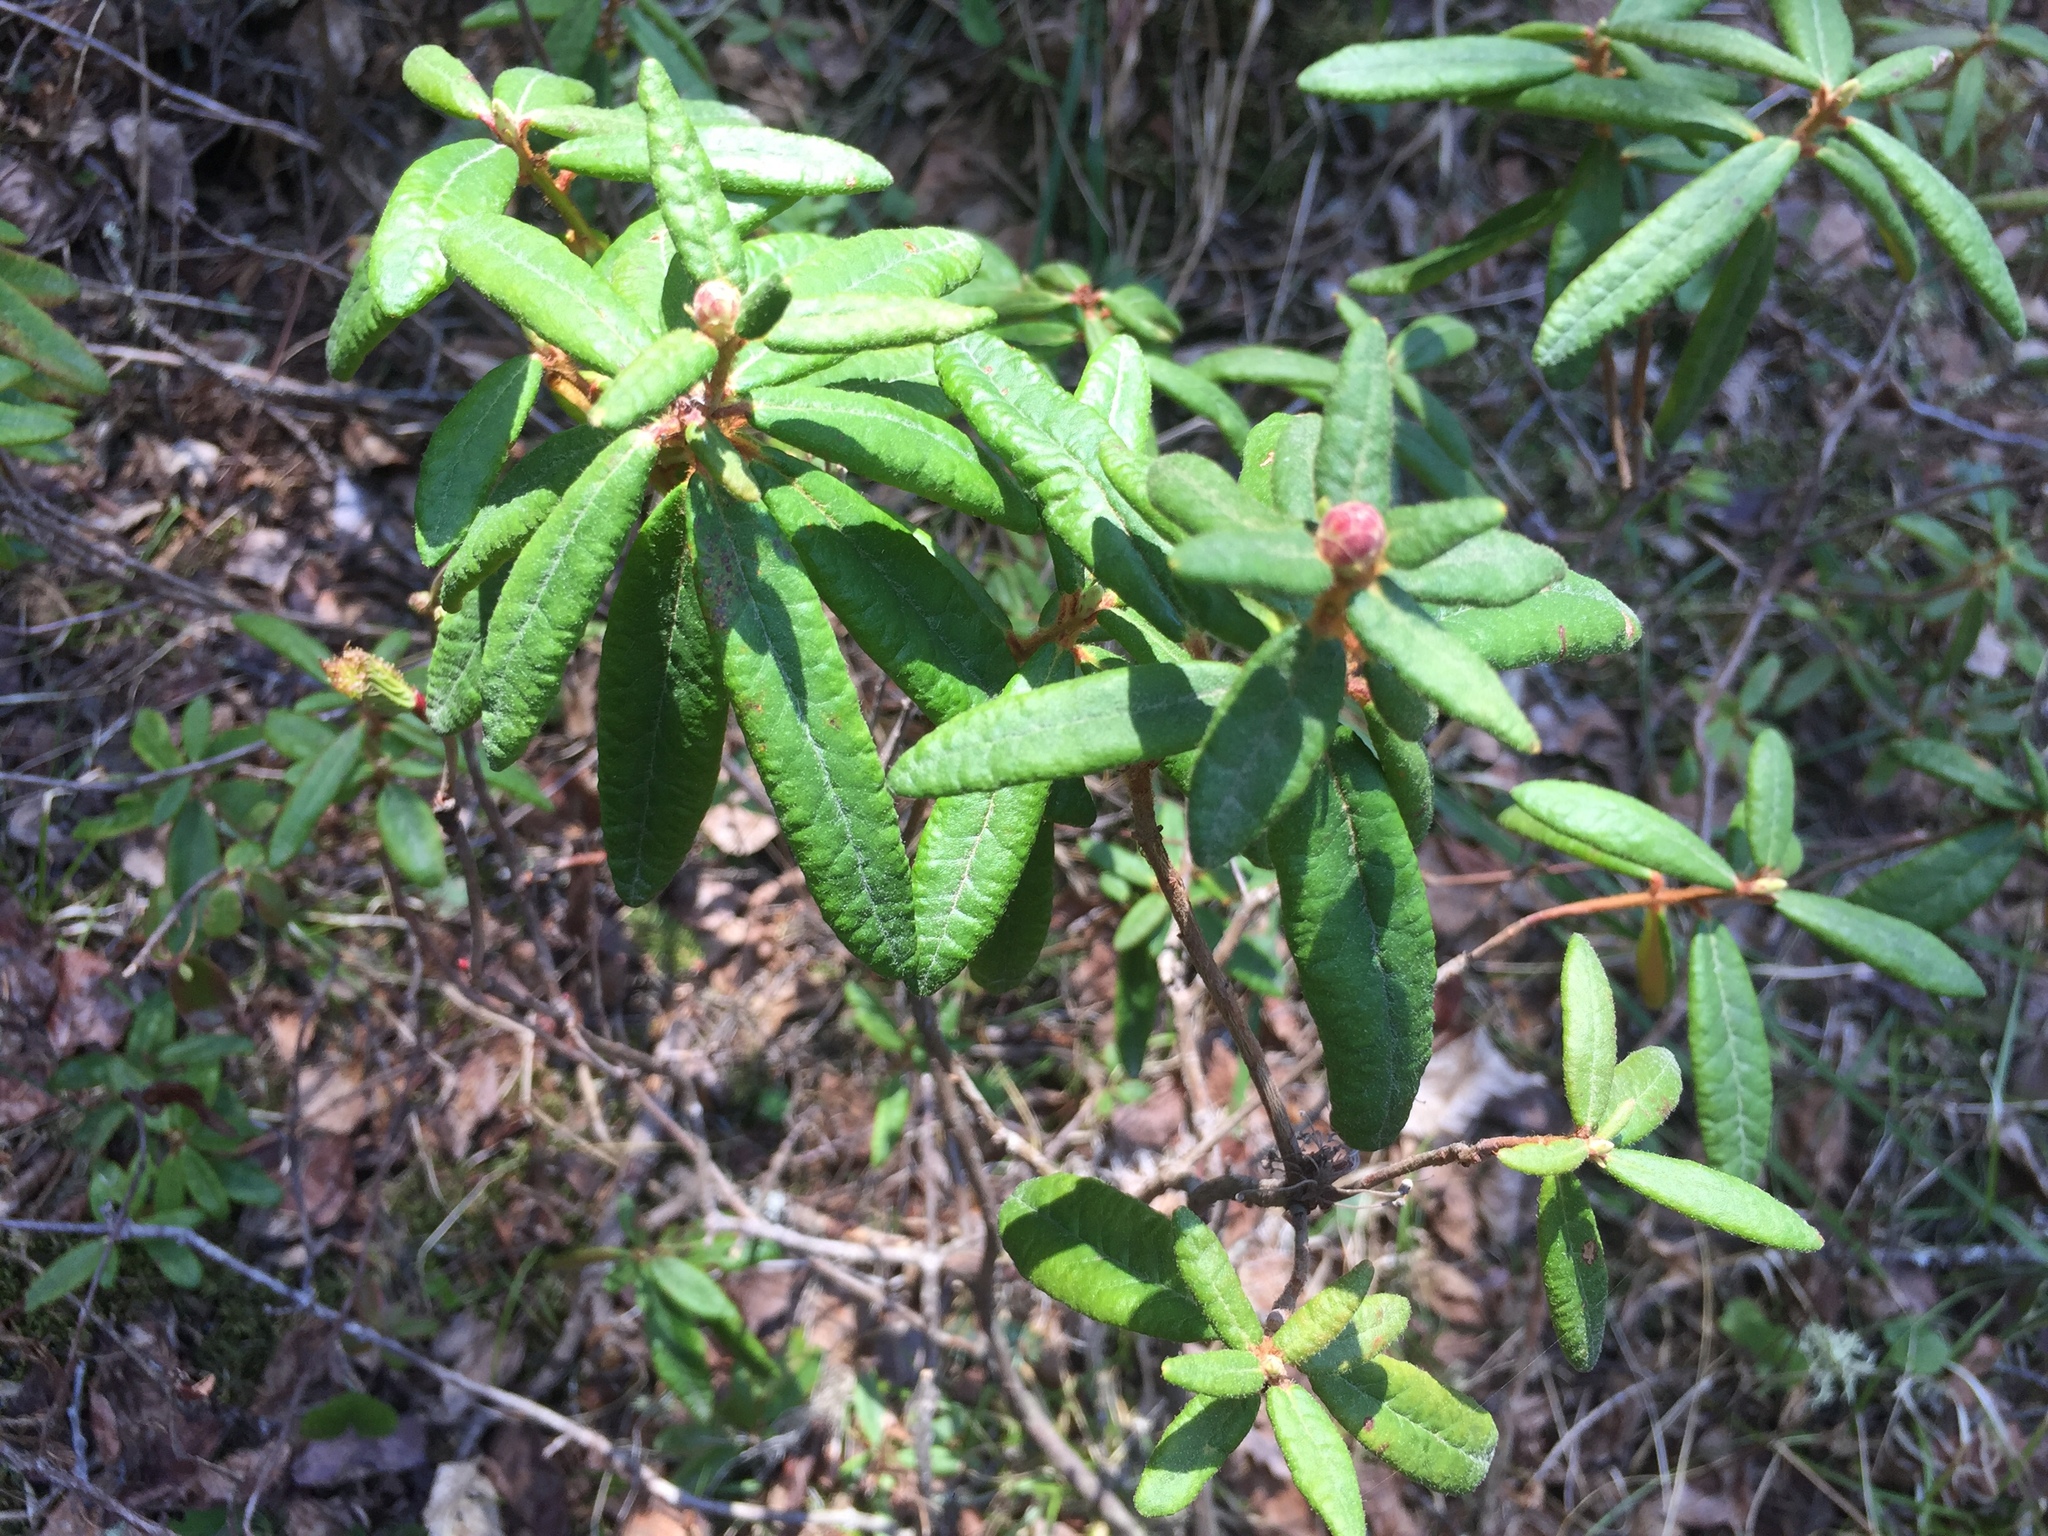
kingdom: Plantae
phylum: Tracheophyta
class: Magnoliopsida
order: Ericales
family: Ericaceae
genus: Rhododendron
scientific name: Rhododendron groenlandicum
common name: Bog labrador tea
